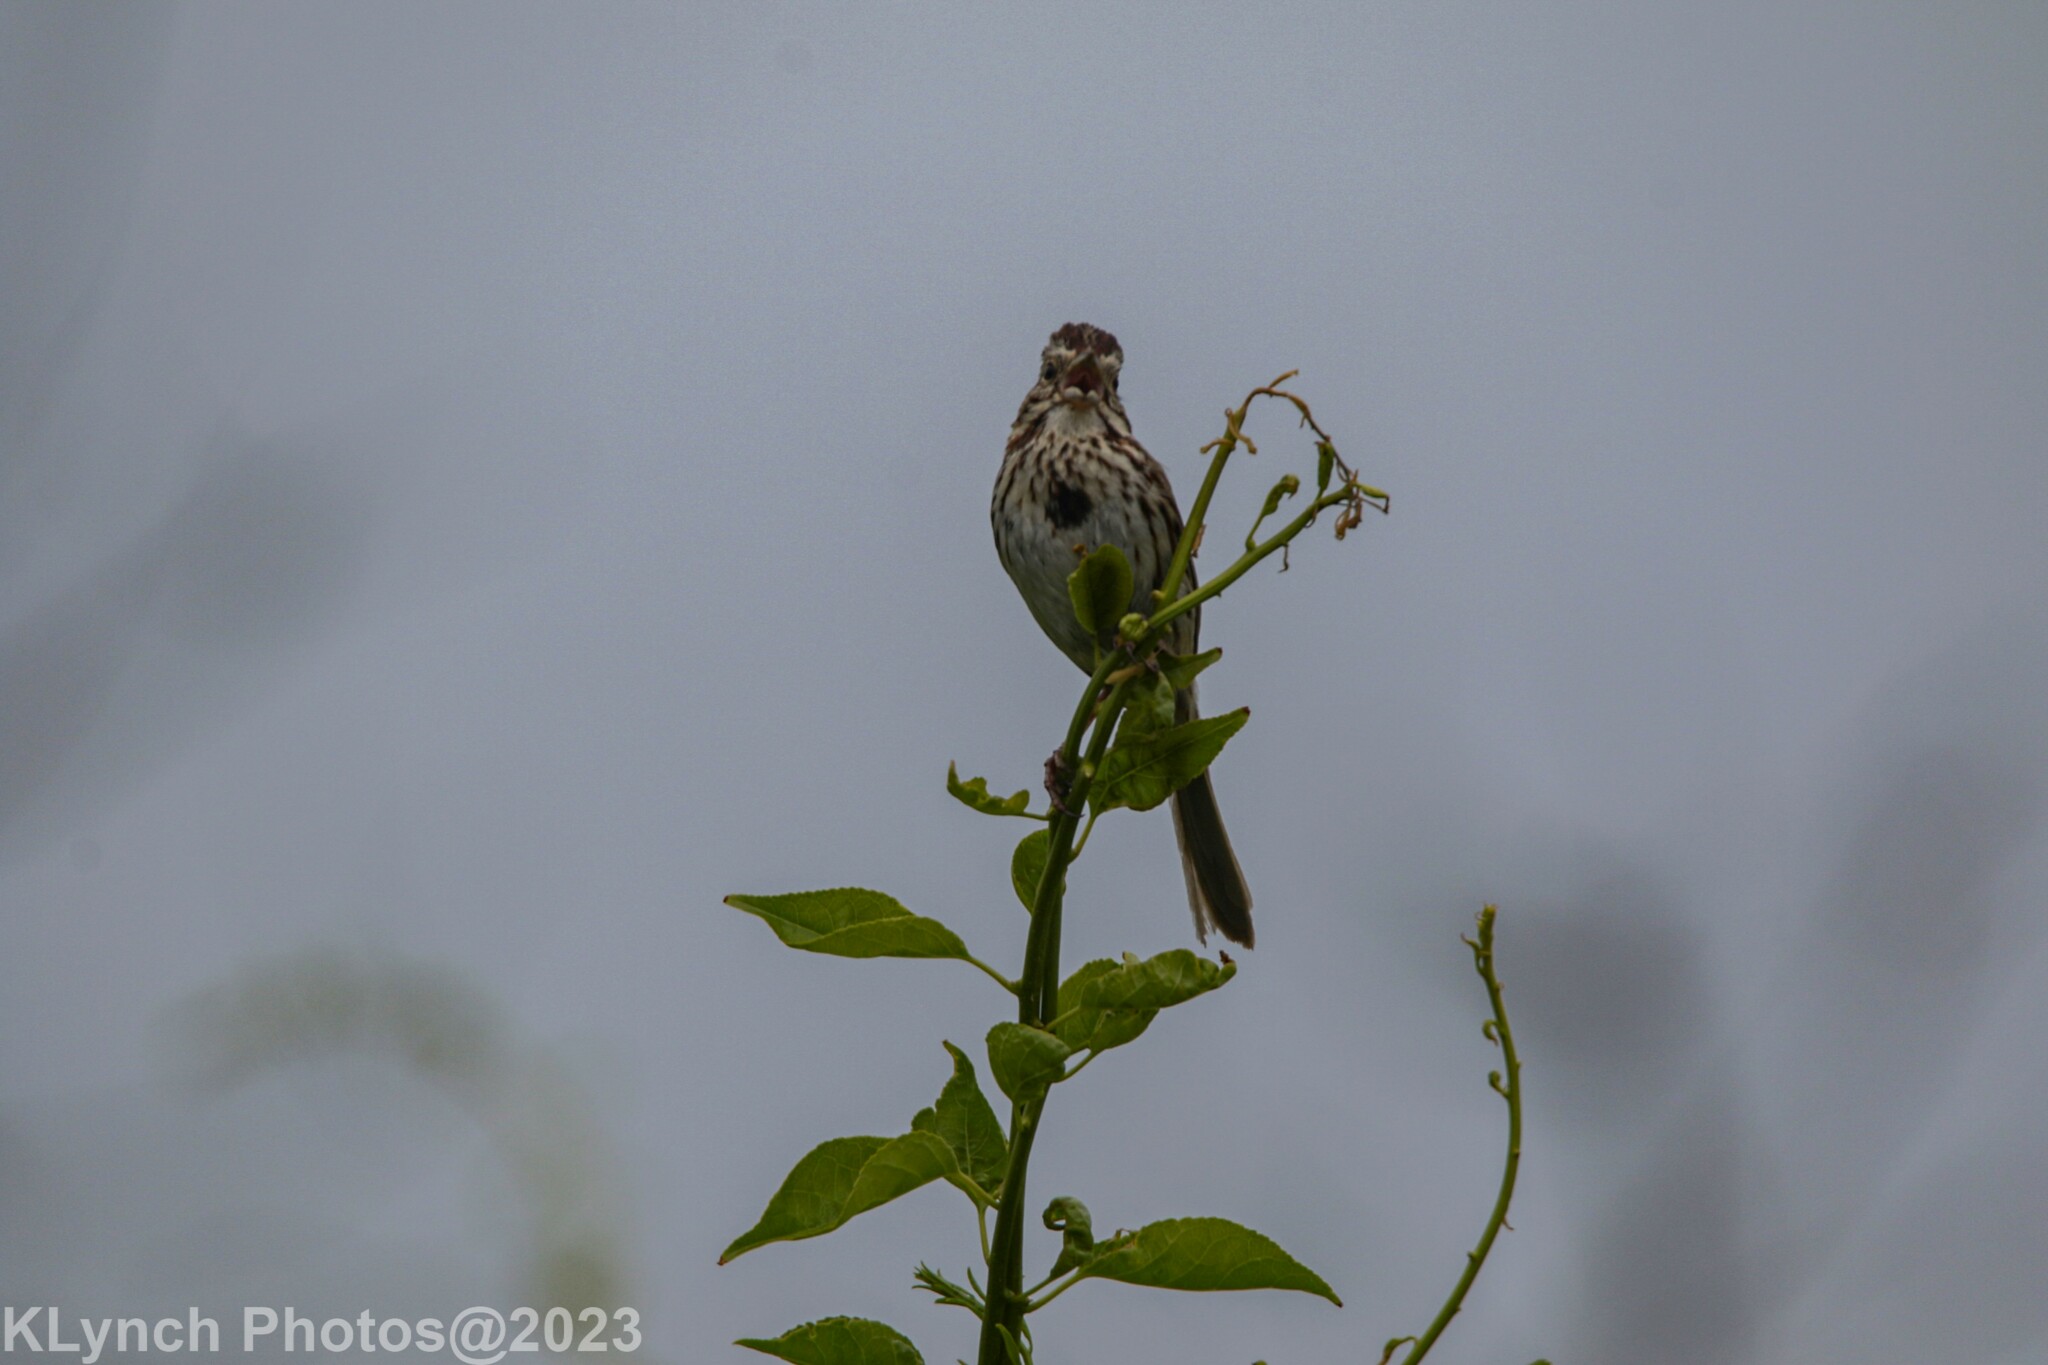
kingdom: Animalia
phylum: Chordata
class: Aves
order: Passeriformes
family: Passerellidae
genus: Melospiza
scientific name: Melospiza melodia
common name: Song sparrow
